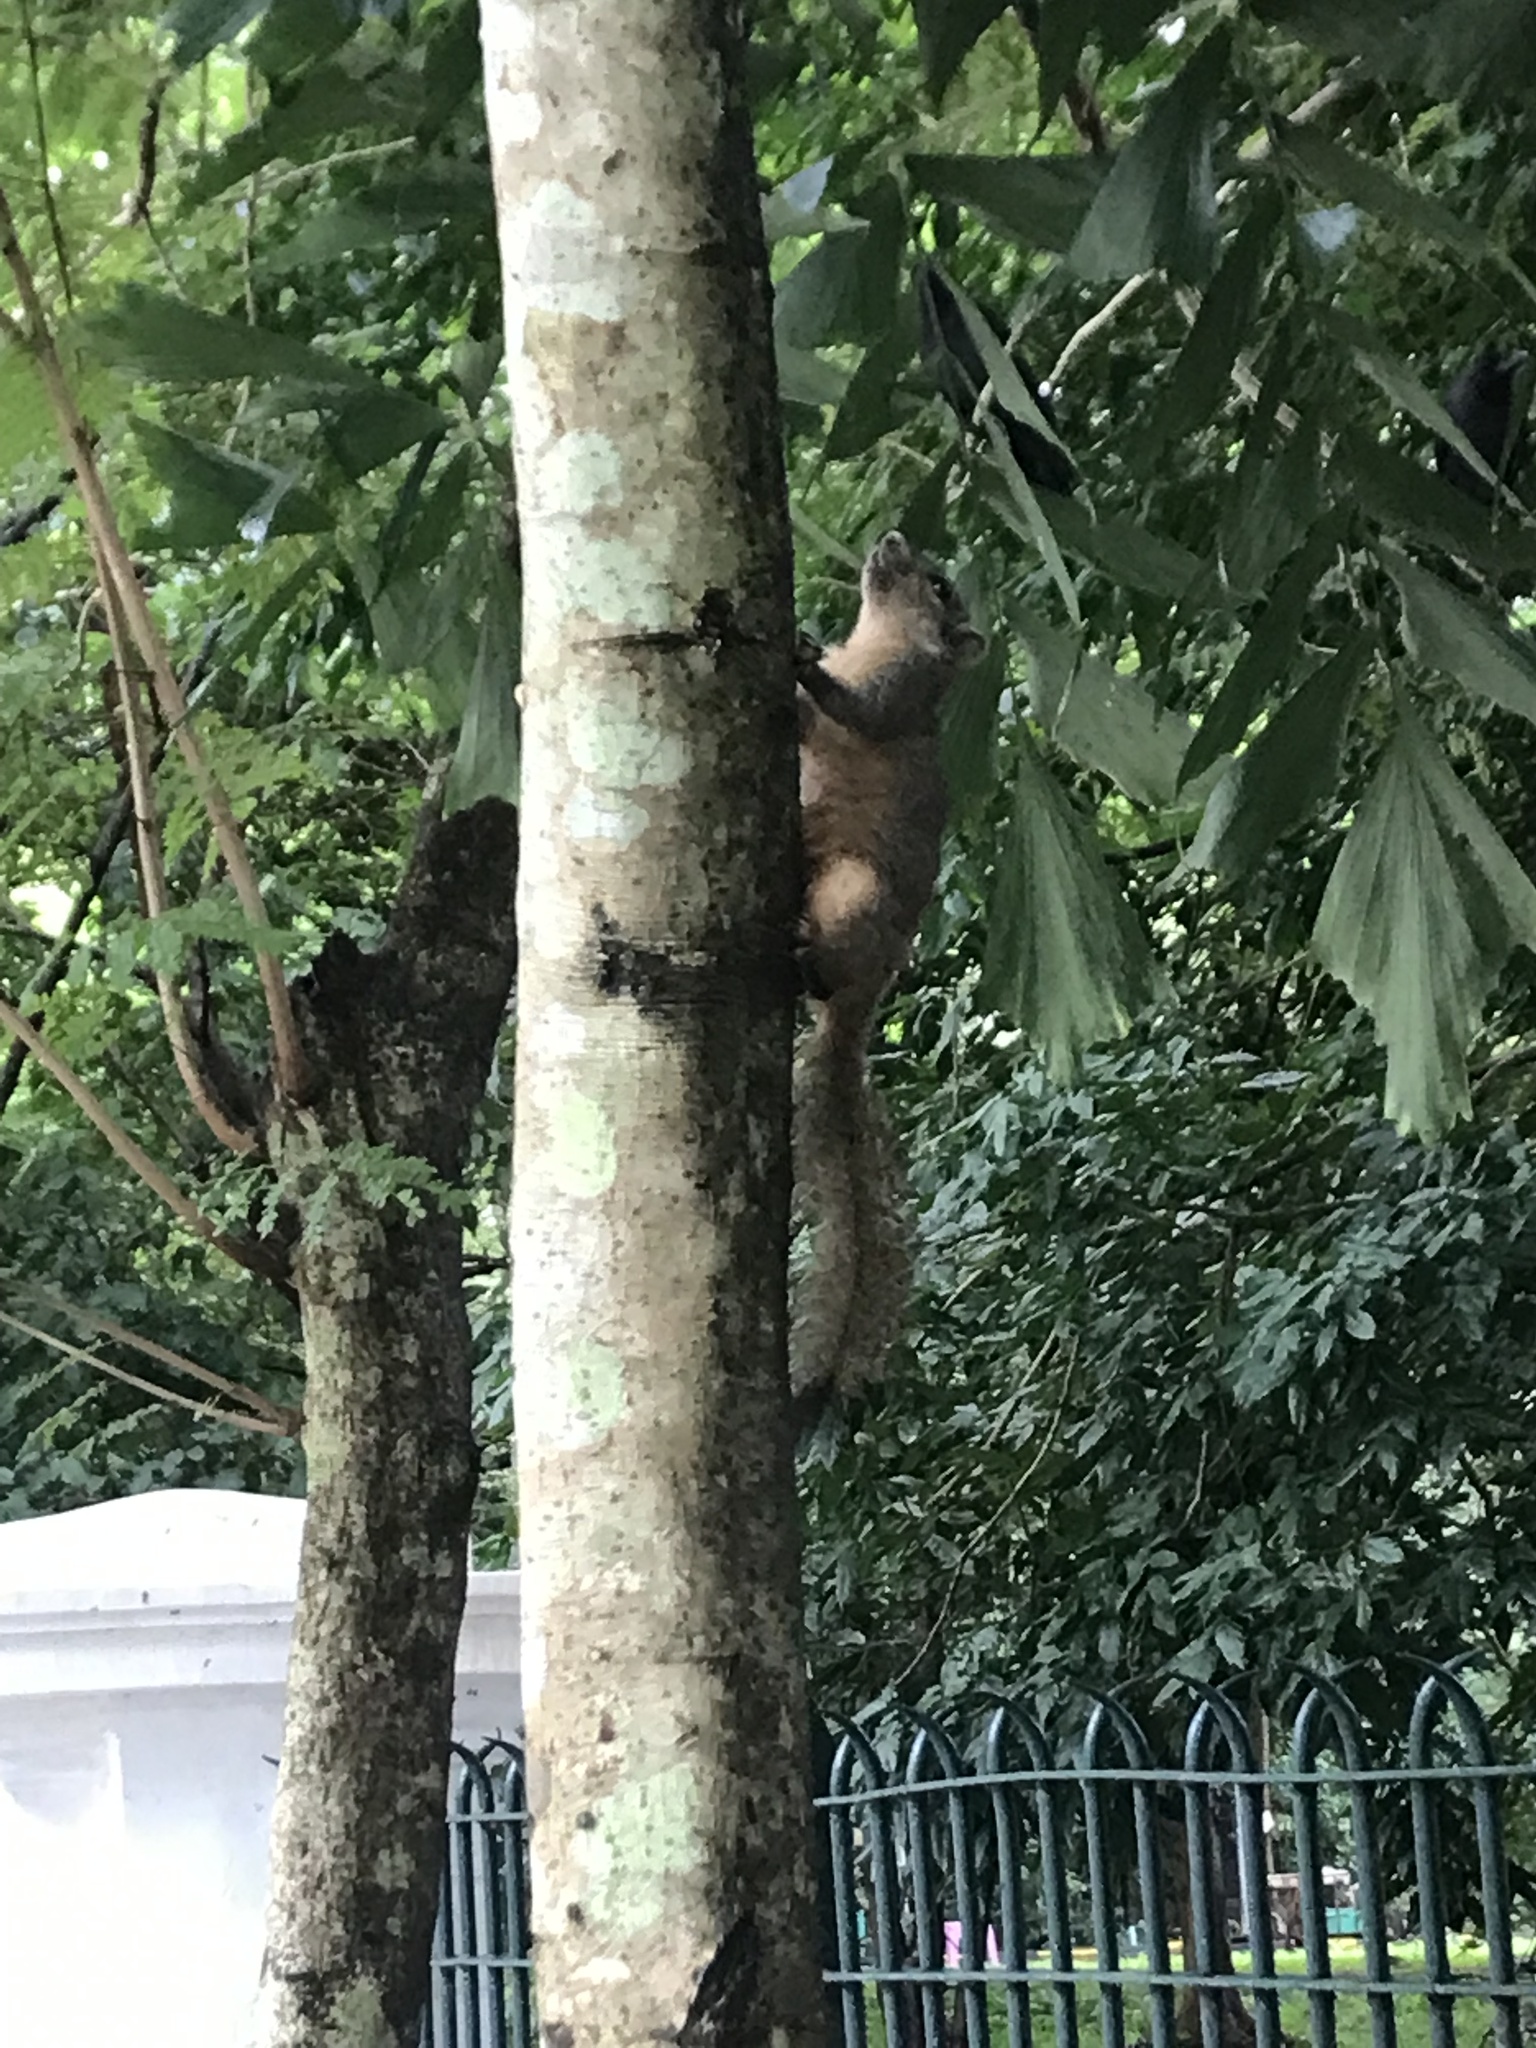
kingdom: Animalia
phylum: Chordata
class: Mammalia
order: Rodentia
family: Sciuridae
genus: Callosciurus
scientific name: Callosciurus pygerythrus
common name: Irrawaddy squirrel
